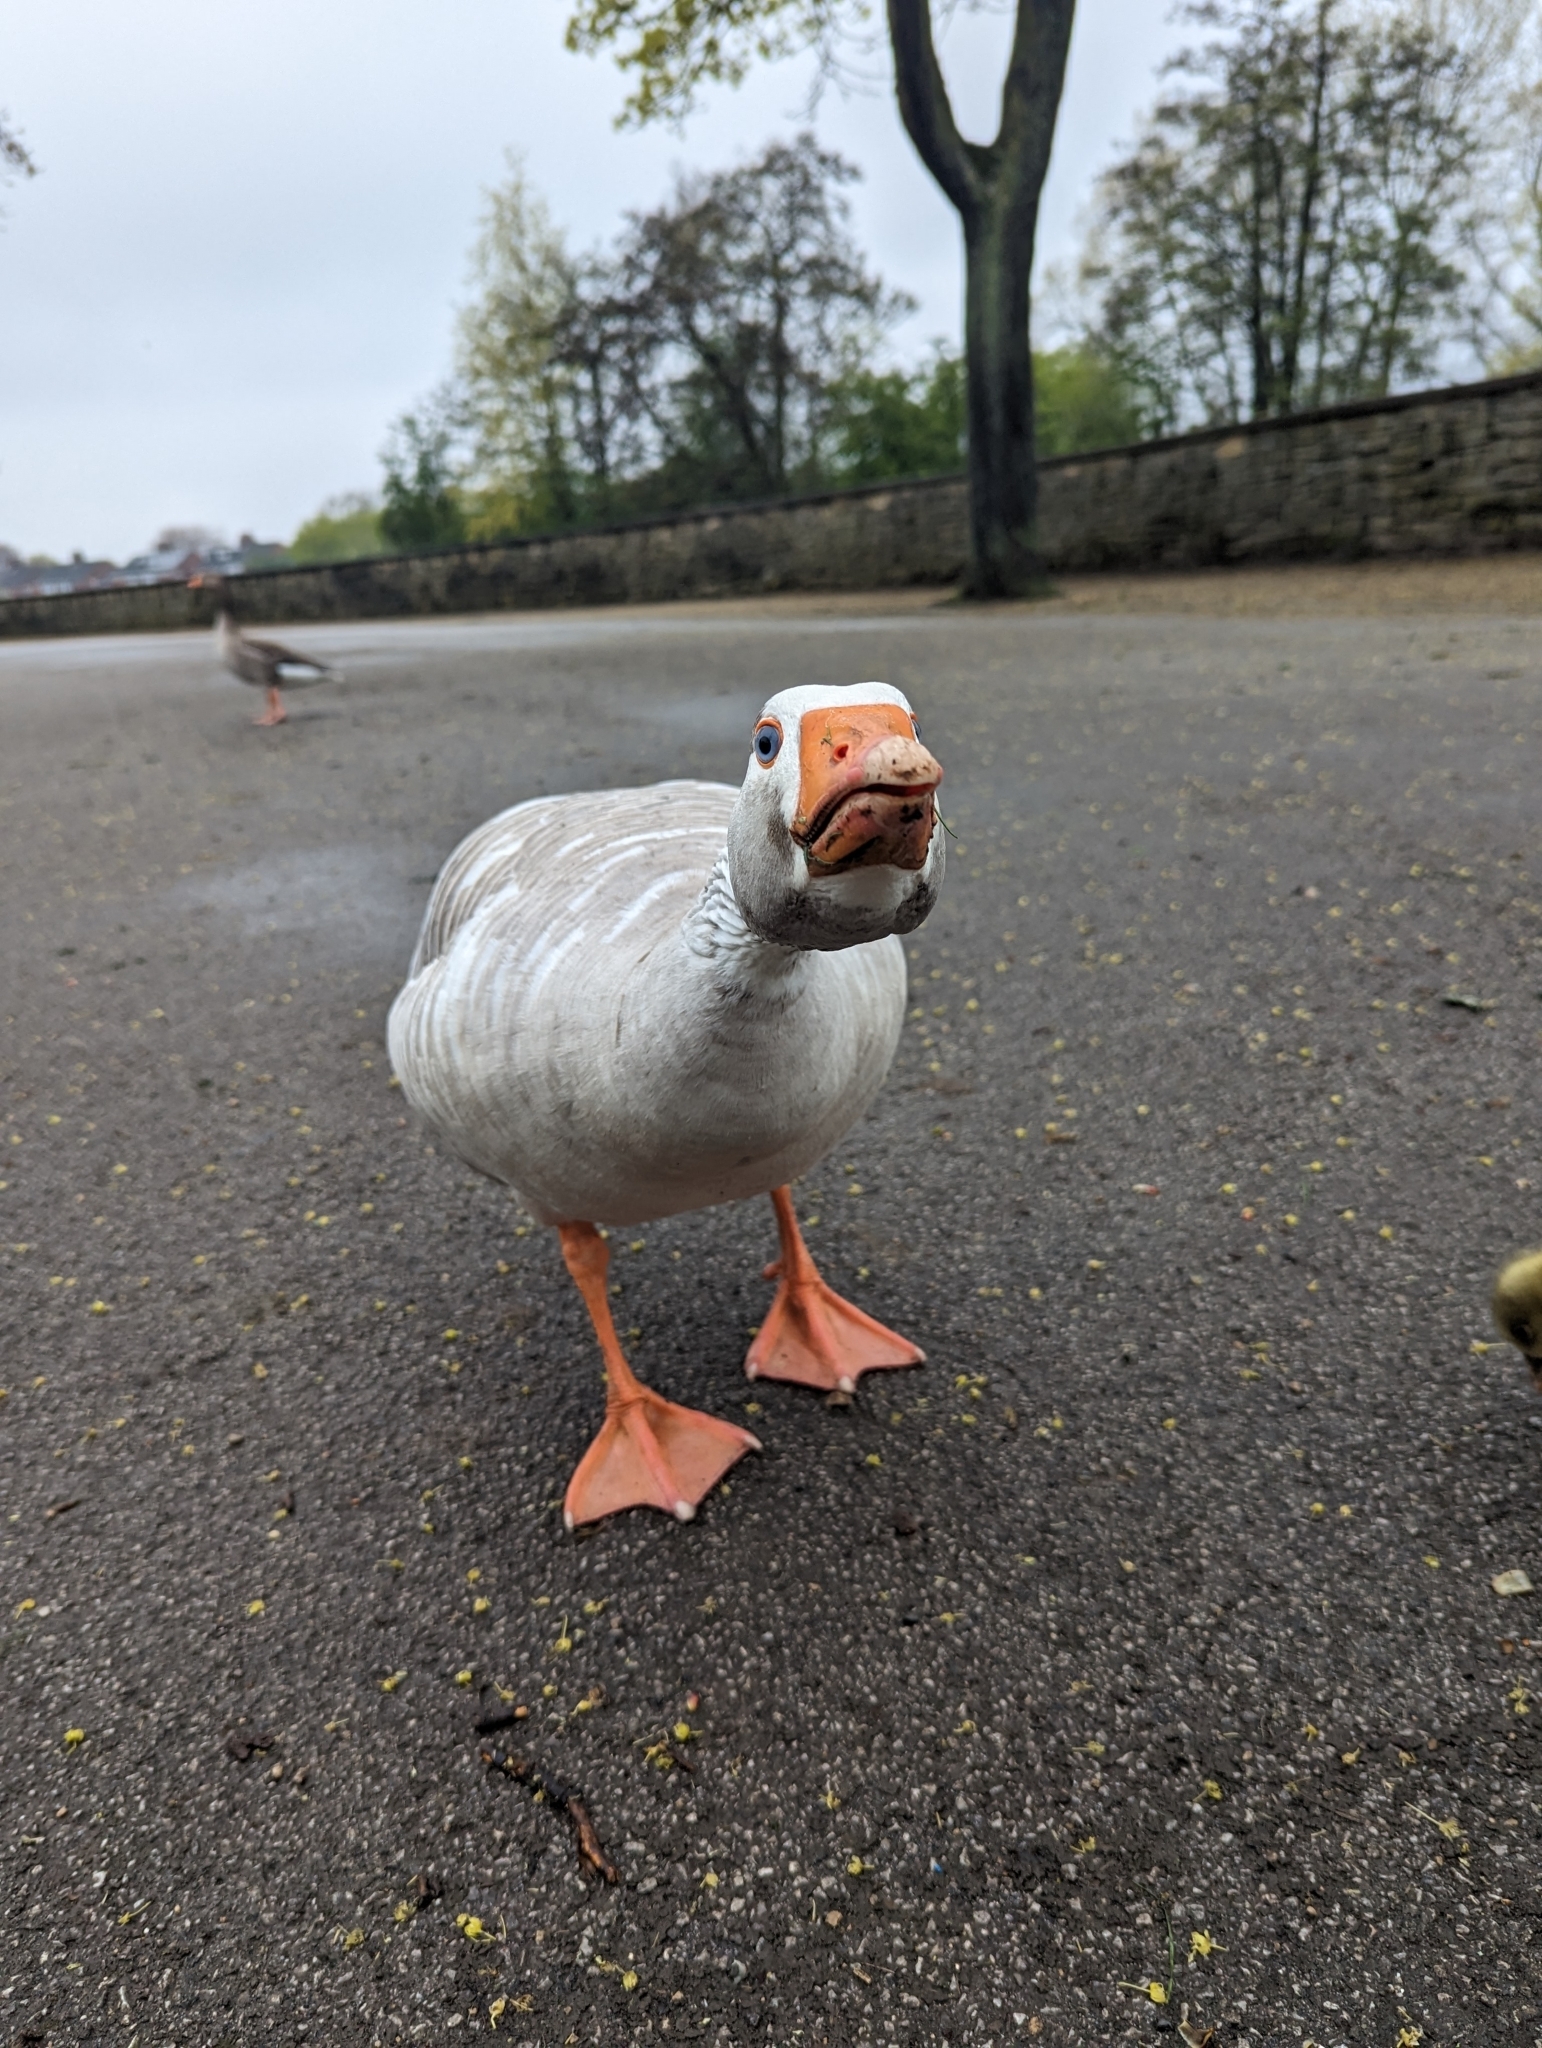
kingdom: Animalia
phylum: Chordata
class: Aves
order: Anseriformes
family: Anatidae
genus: Anser
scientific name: Anser anser
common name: Greylag goose
